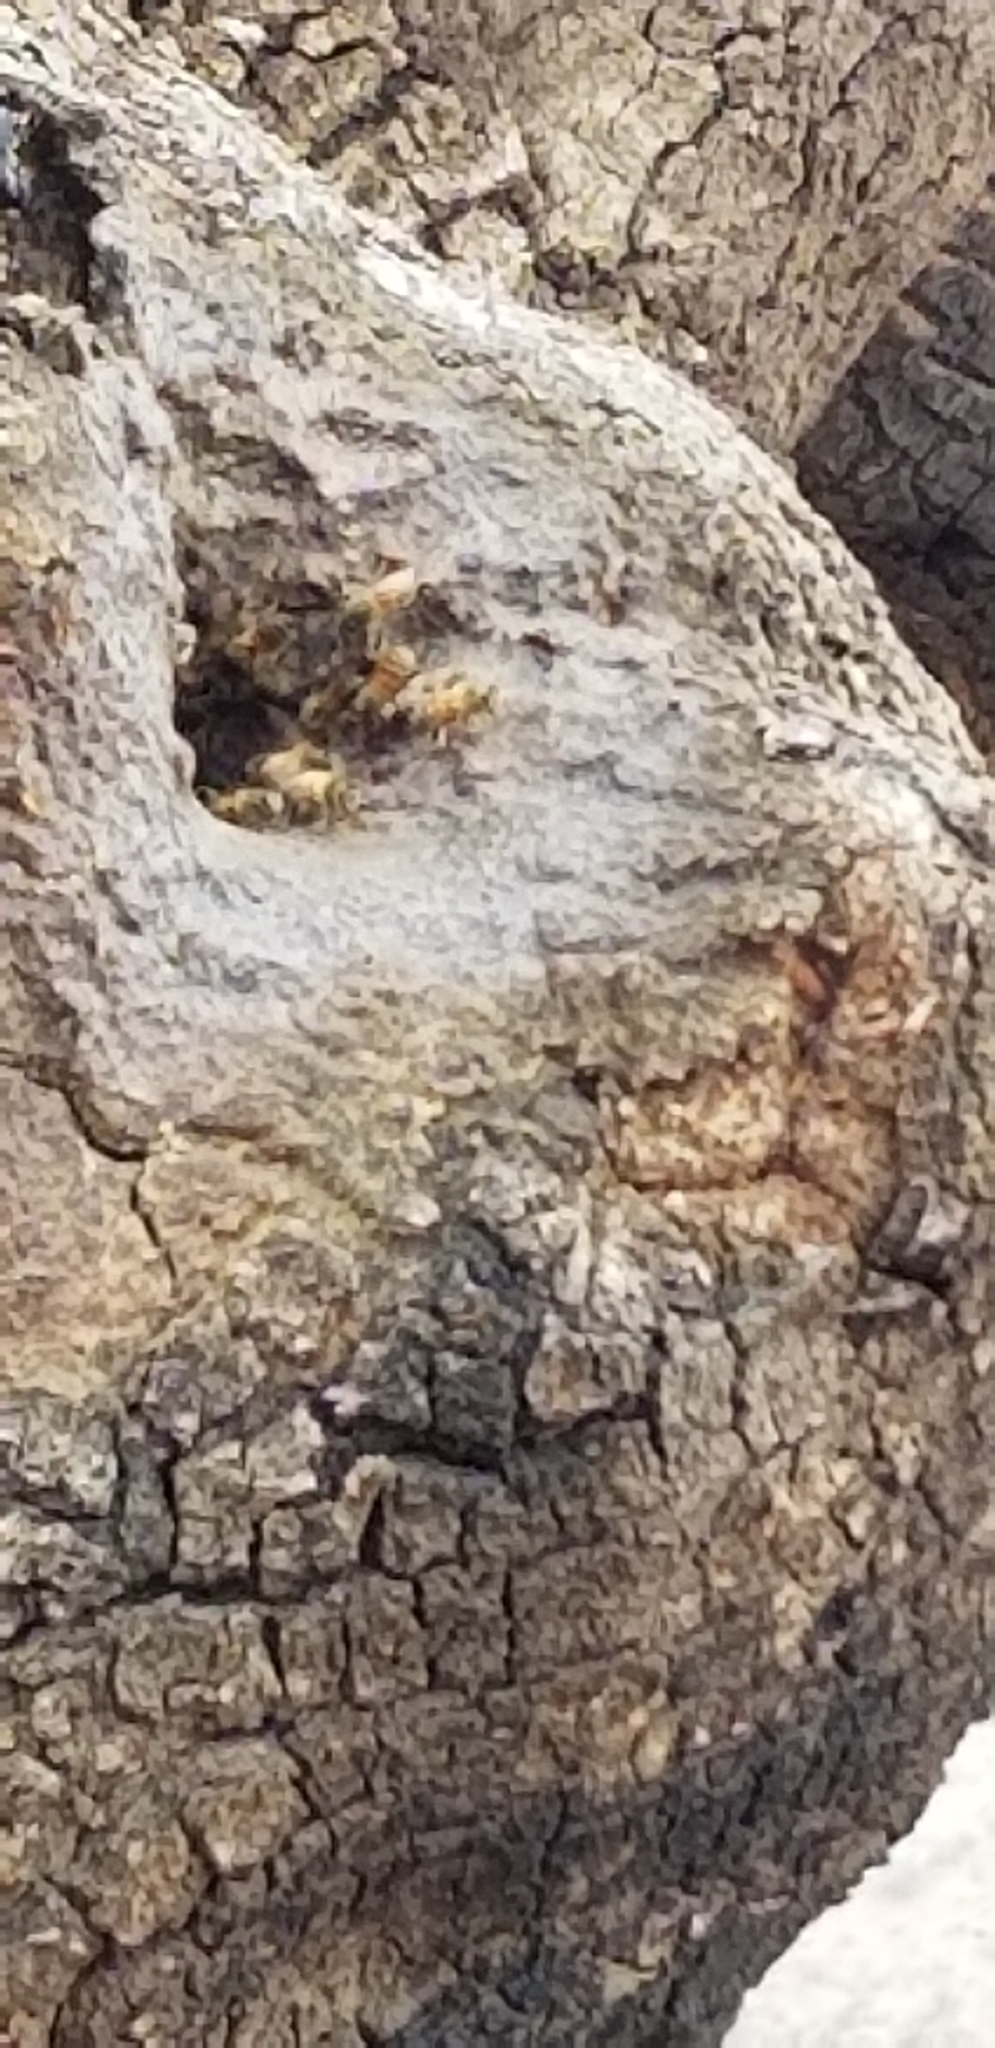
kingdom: Animalia
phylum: Arthropoda
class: Insecta
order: Hymenoptera
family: Apidae
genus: Apis
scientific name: Apis mellifera
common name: Honey bee
